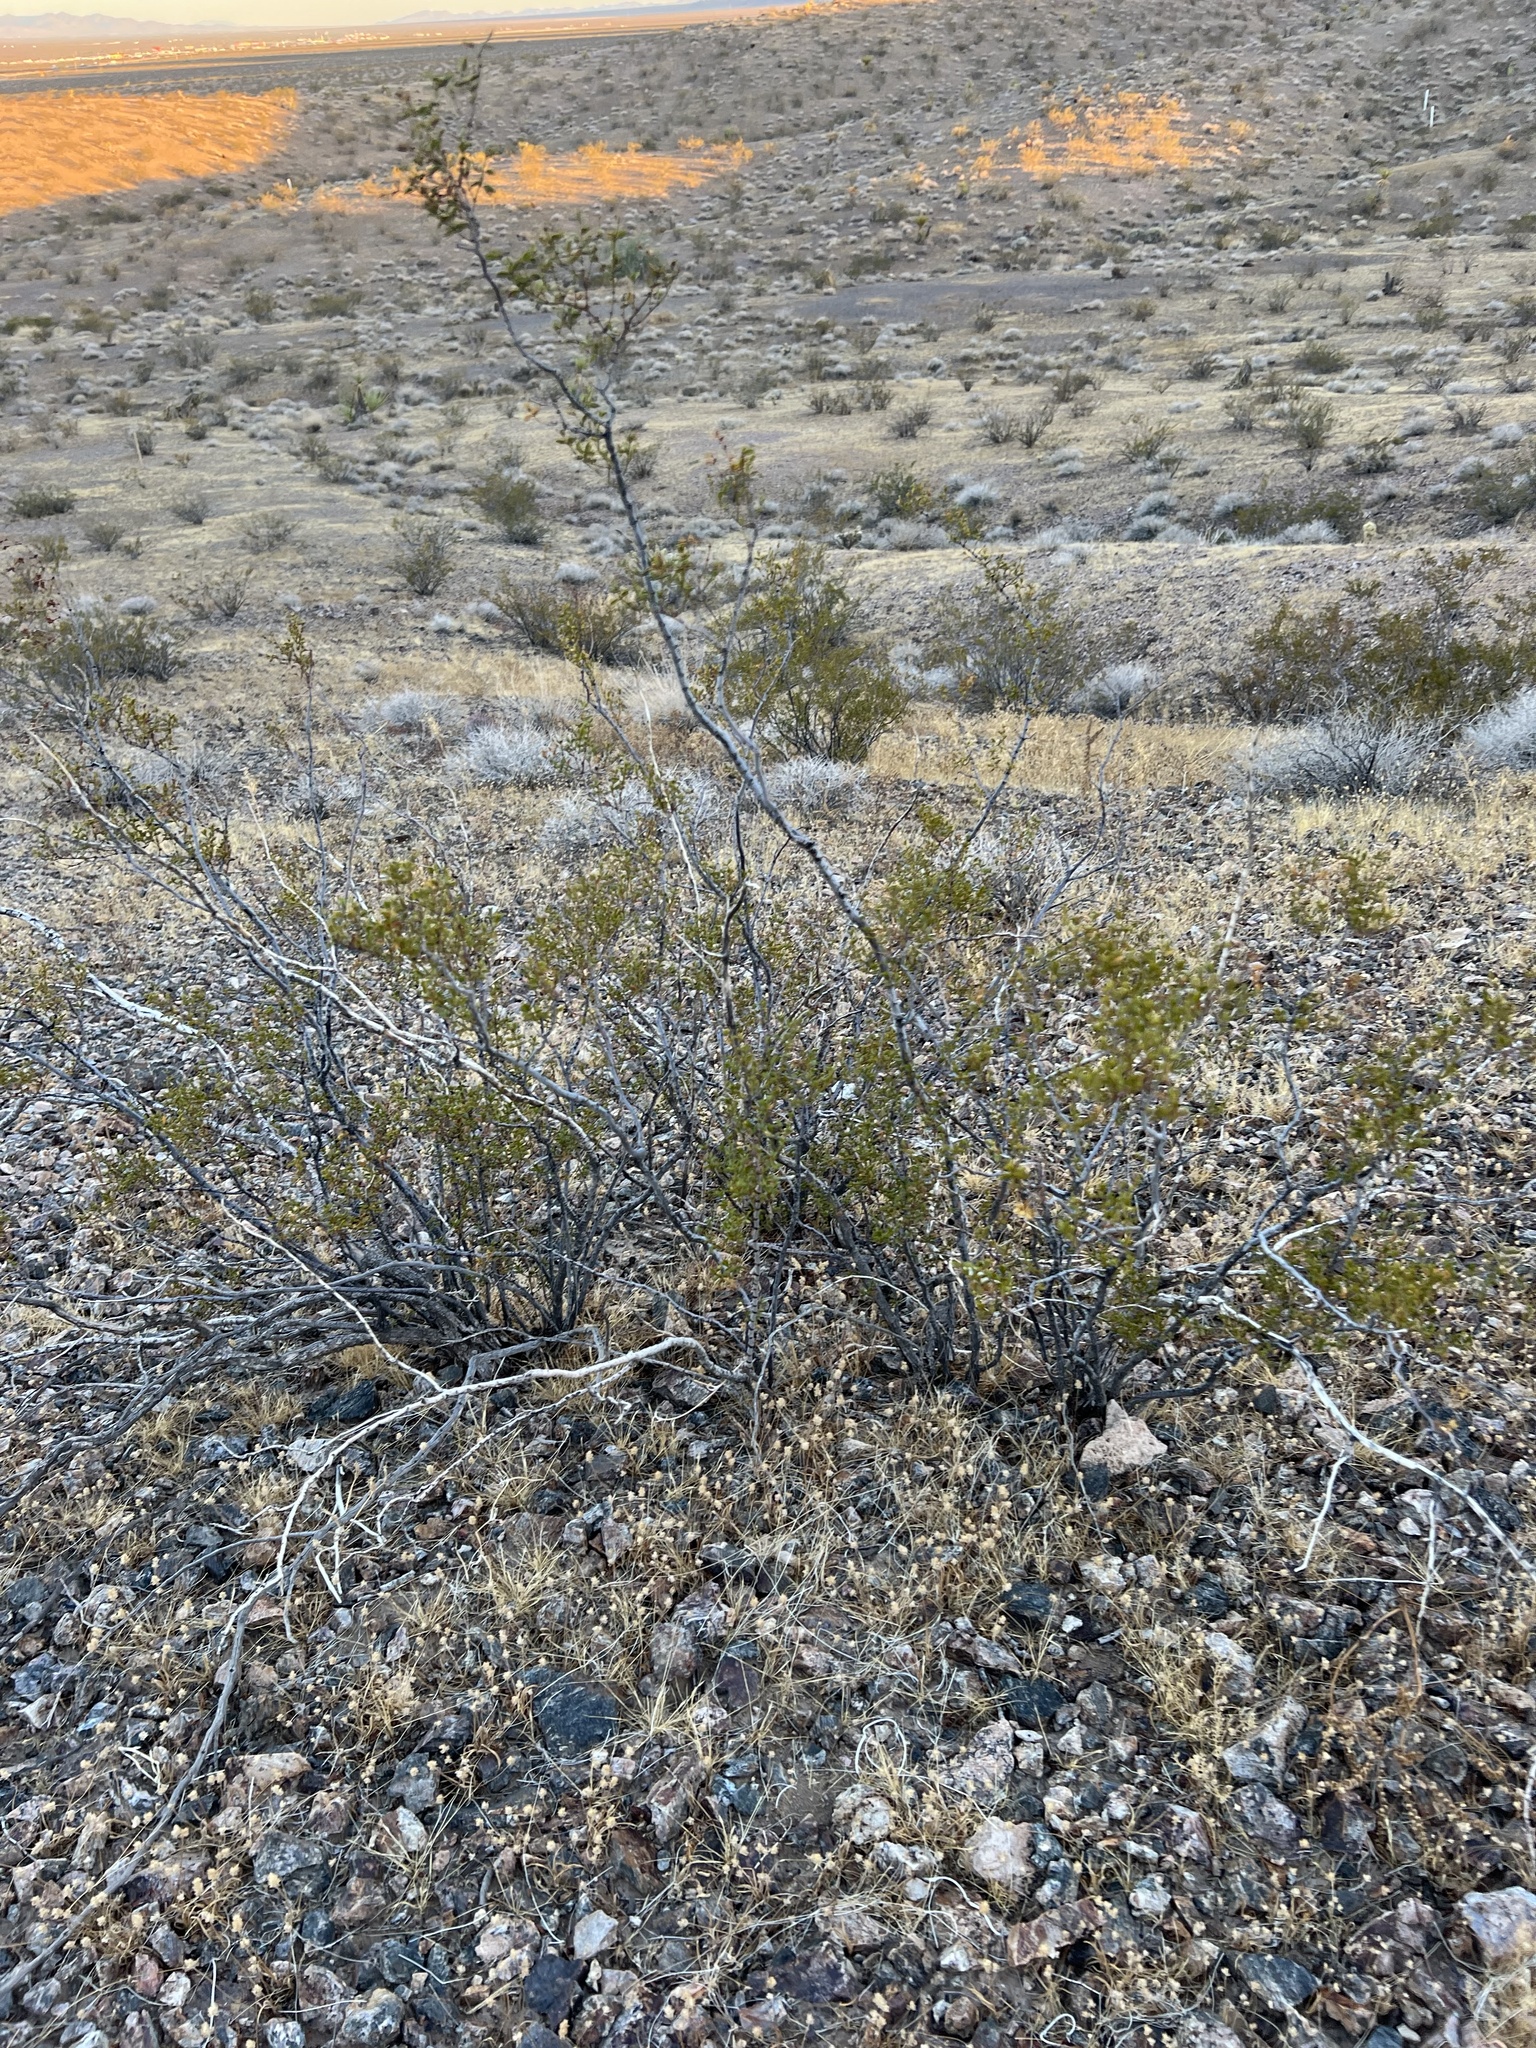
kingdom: Plantae
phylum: Tracheophyta
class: Magnoliopsida
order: Zygophyllales
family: Zygophyllaceae
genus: Larrea
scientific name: Larrea tridentata
